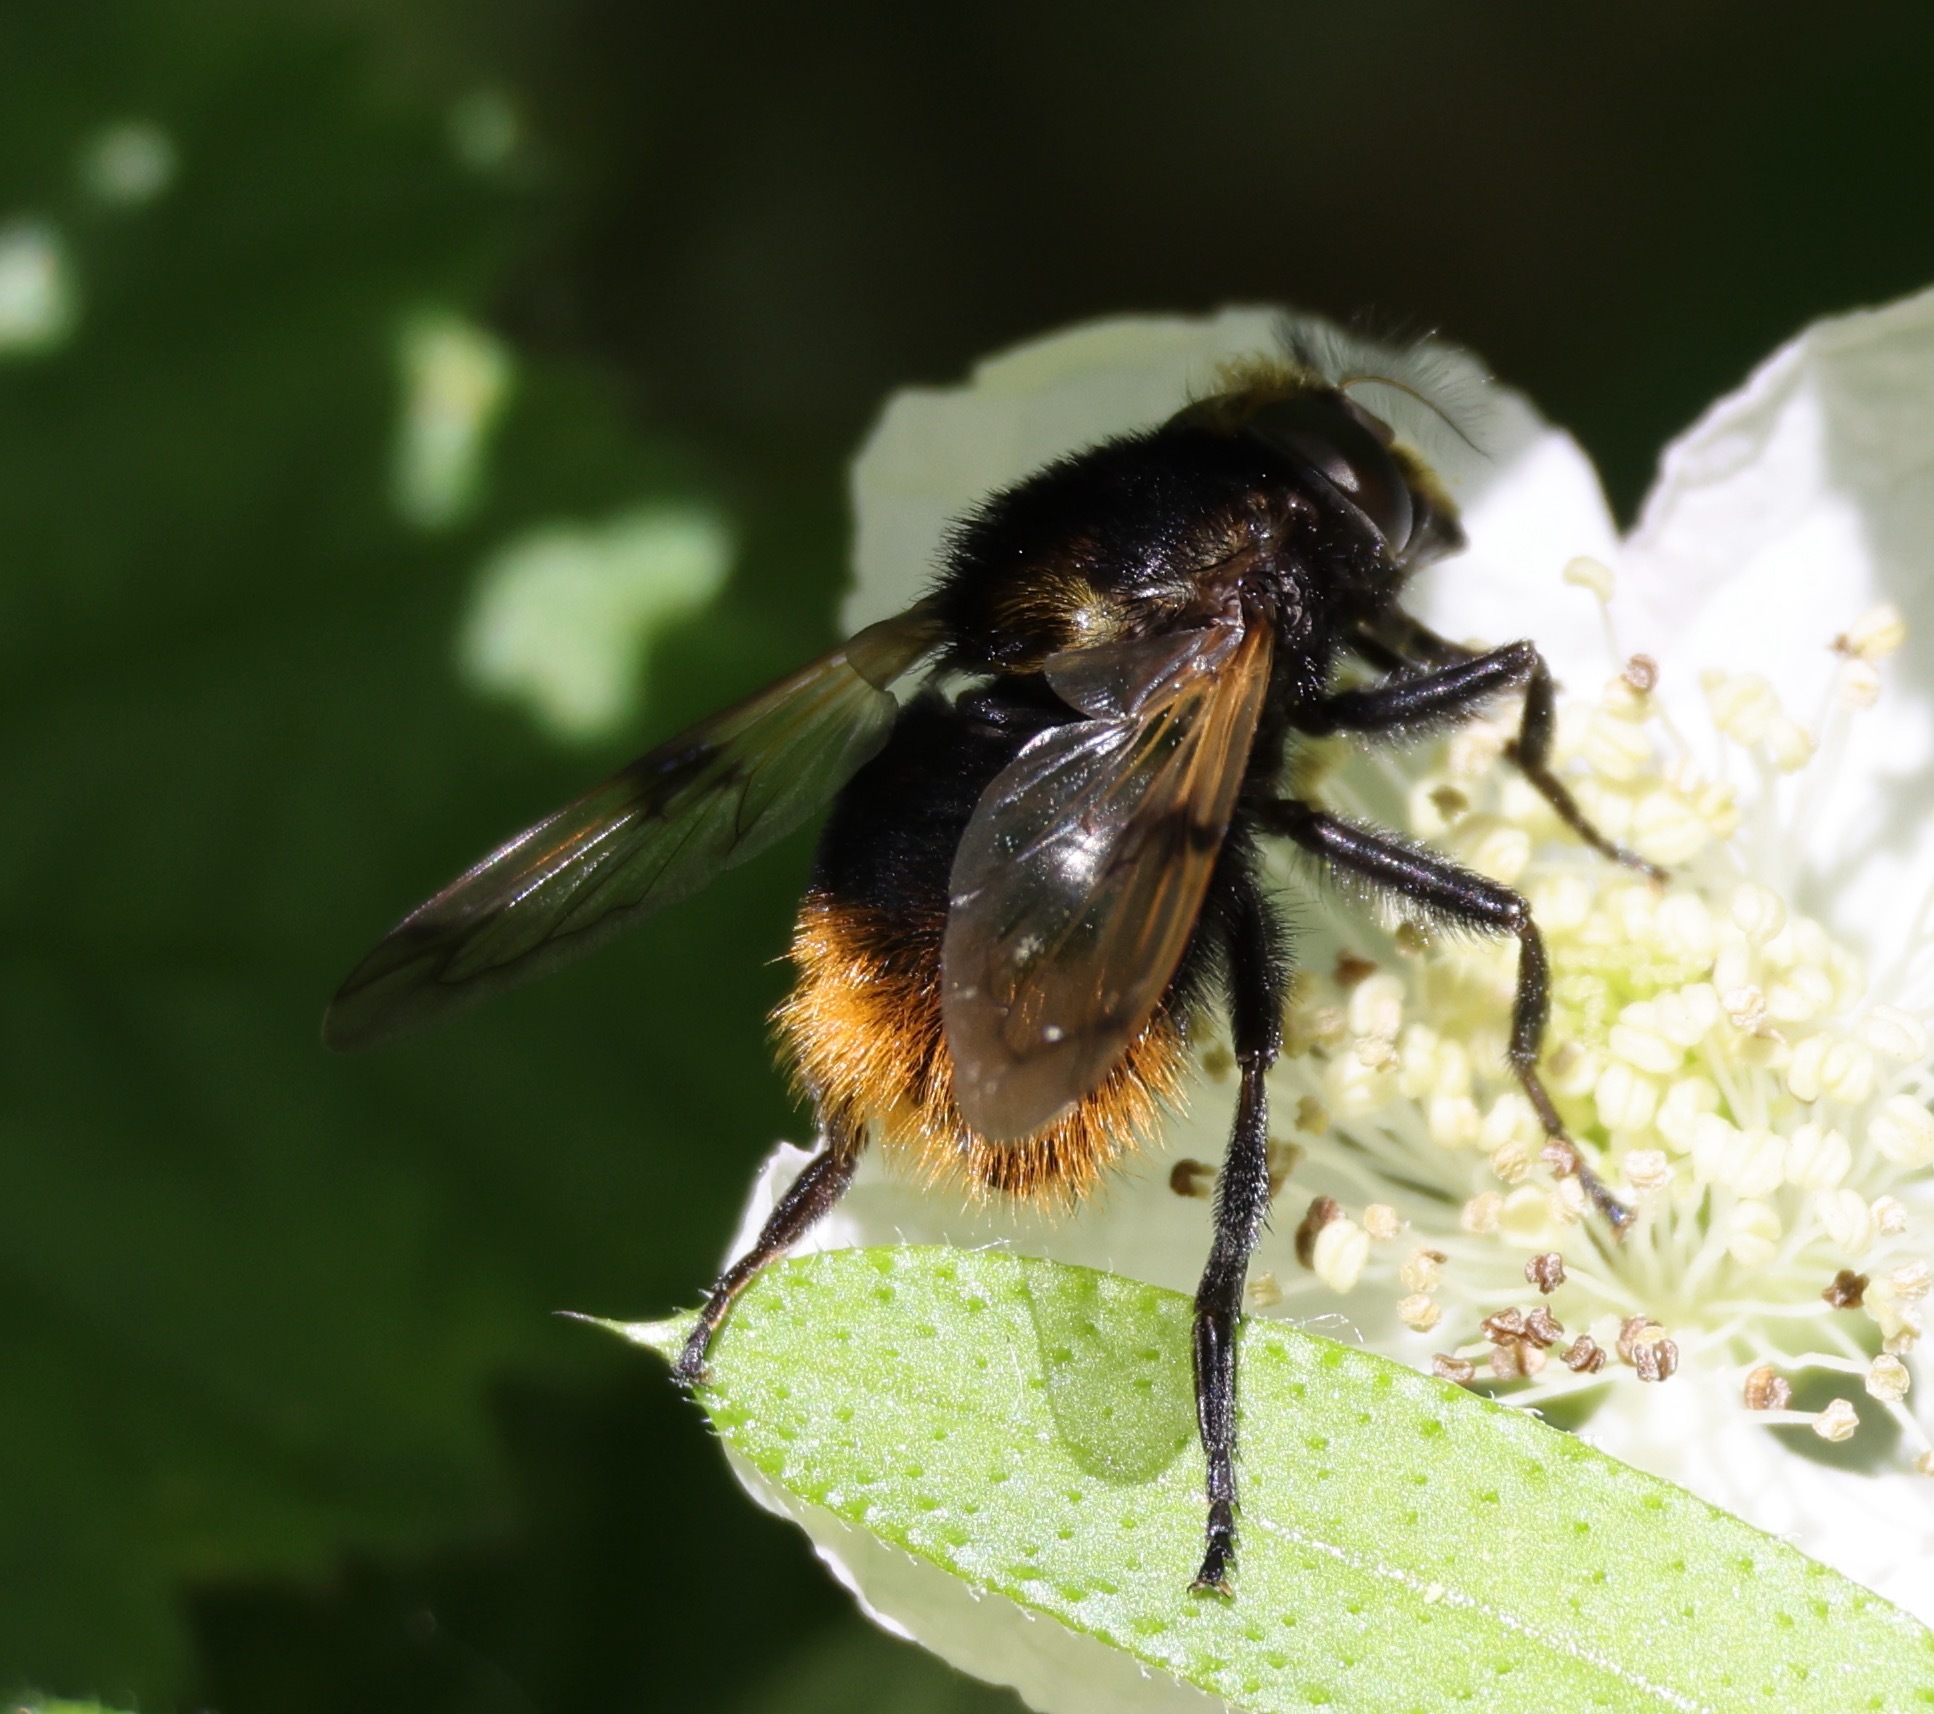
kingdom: Animalia
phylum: Arthropoda
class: Insecta
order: Diptera
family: Syrphidae
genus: Volucella
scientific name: Volucella bombylans
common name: Bumble bee hover fly
